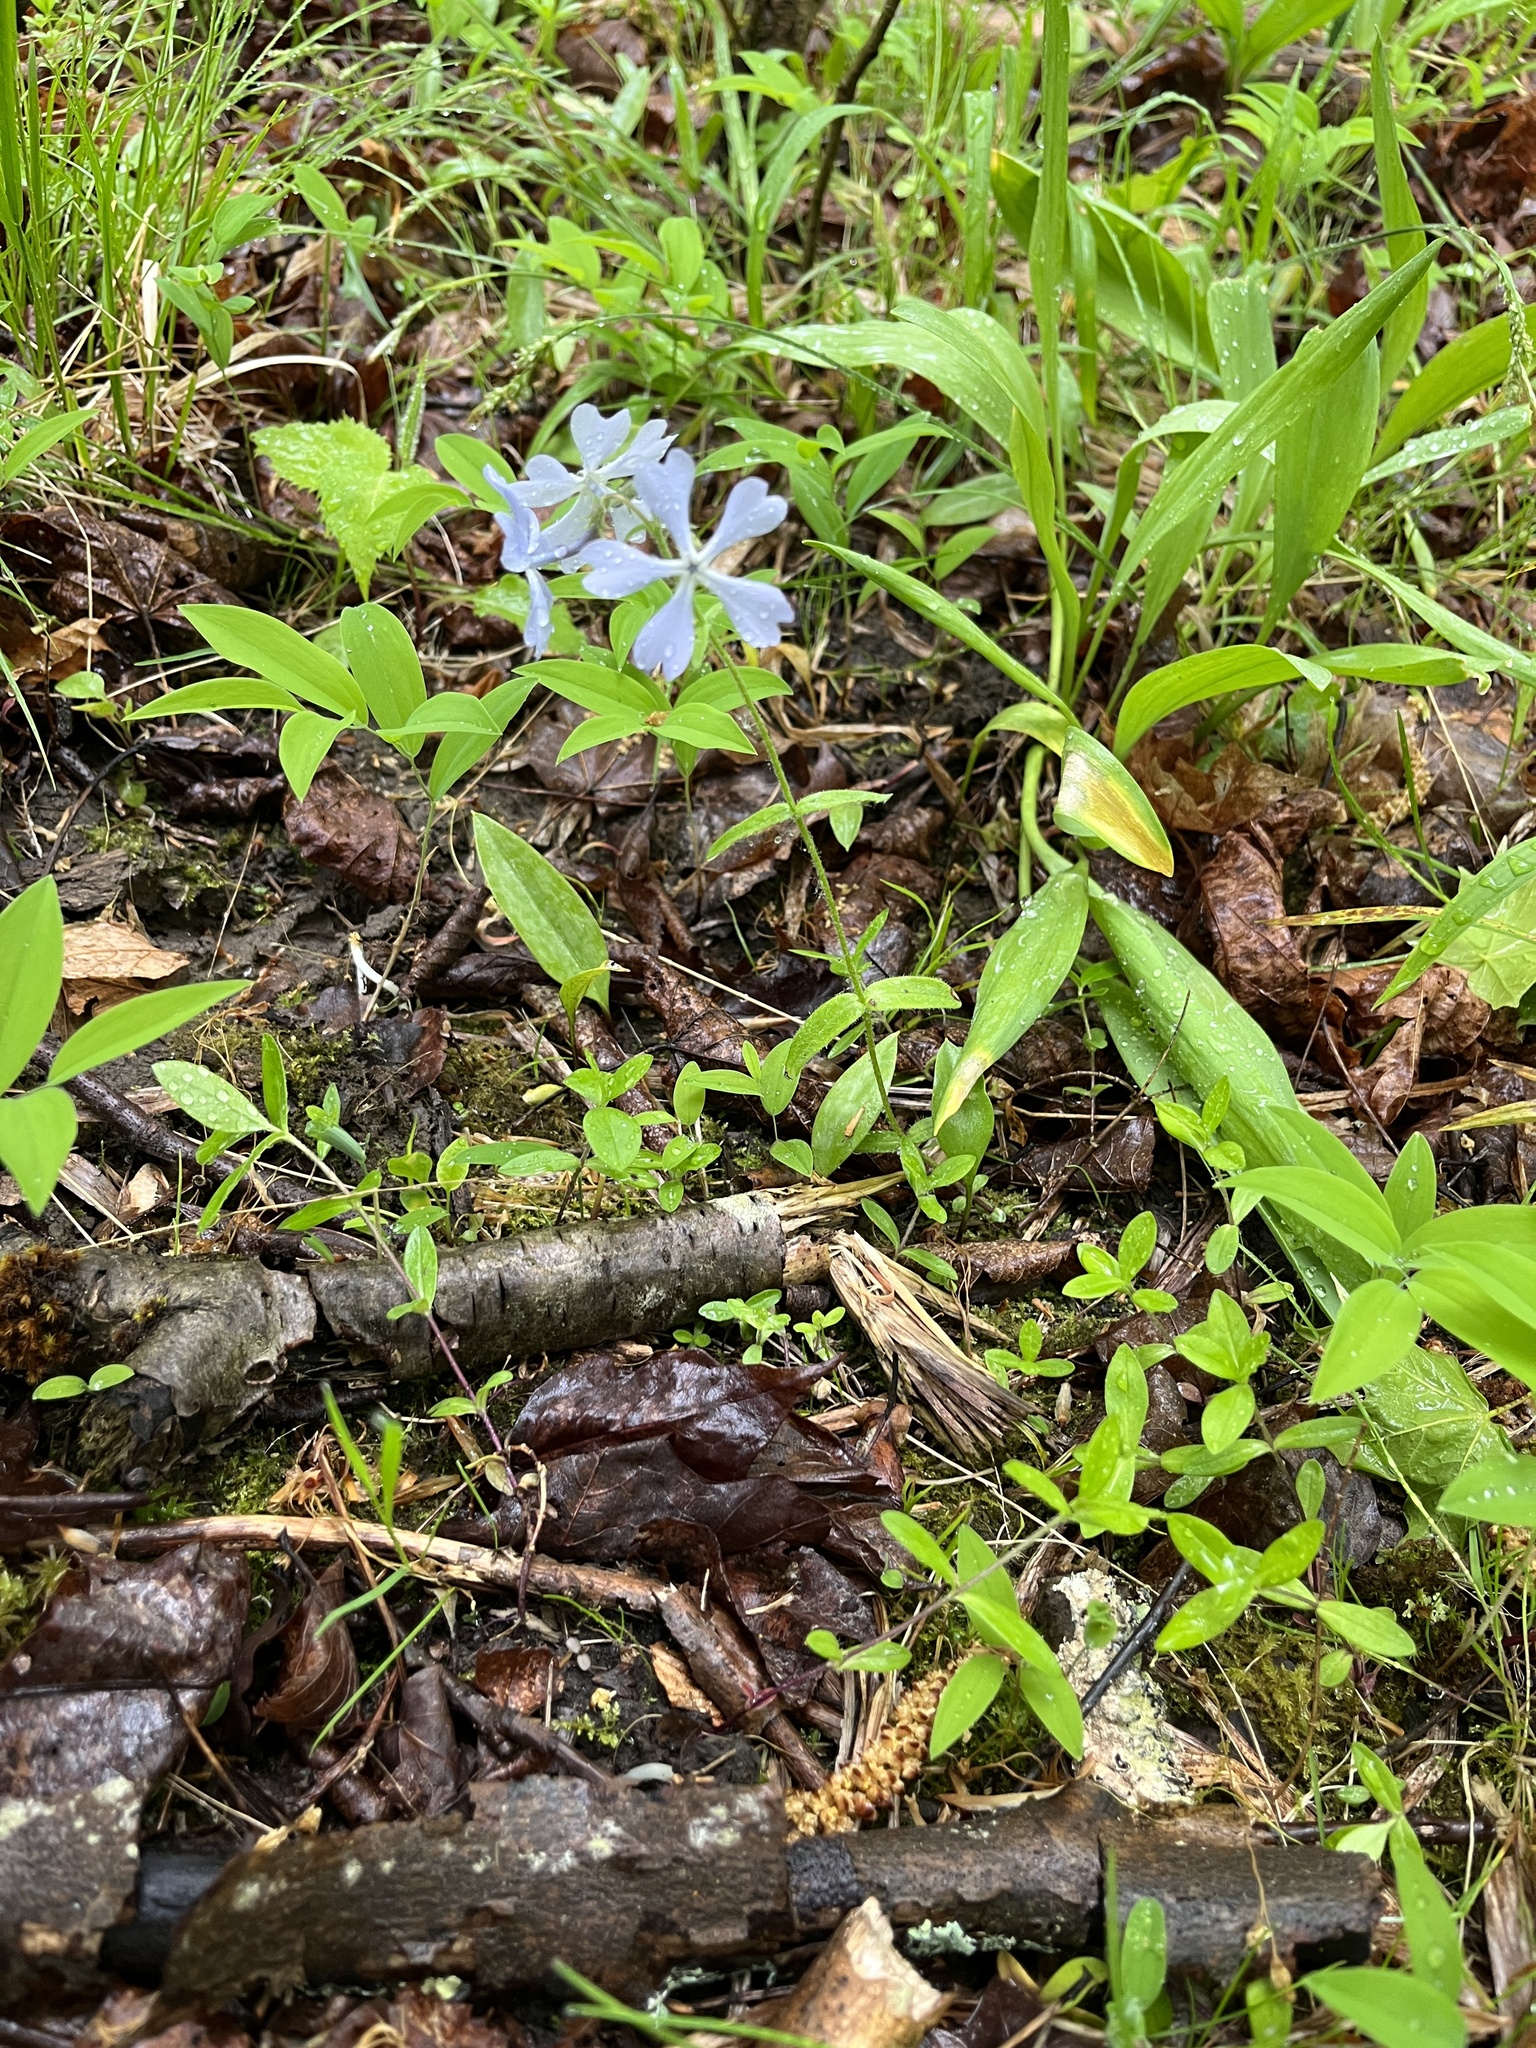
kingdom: Plantae
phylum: Tracheophyta
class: Magnoliopsida
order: Ericales
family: Polemoniaceae
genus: Phlox
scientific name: Phlox divaricata
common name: Blue phlox
